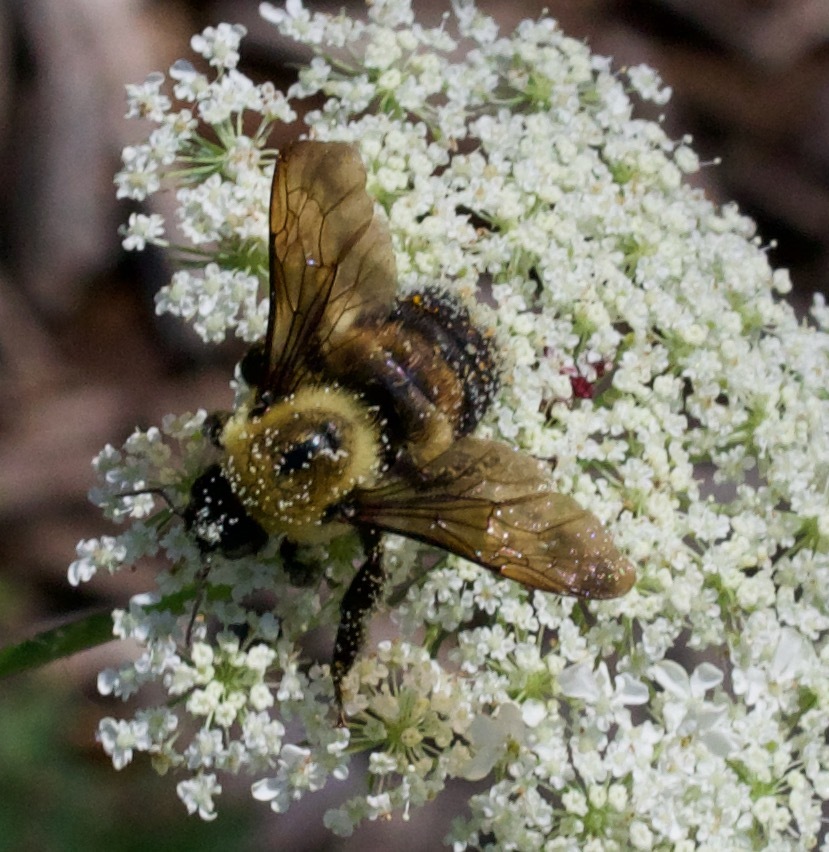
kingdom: Animalia
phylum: Arthropoda
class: Insecta
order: Hymenoptera
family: Apidae
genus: Bombus
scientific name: Bombus griseocollis
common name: Brown-belted bumble bee
